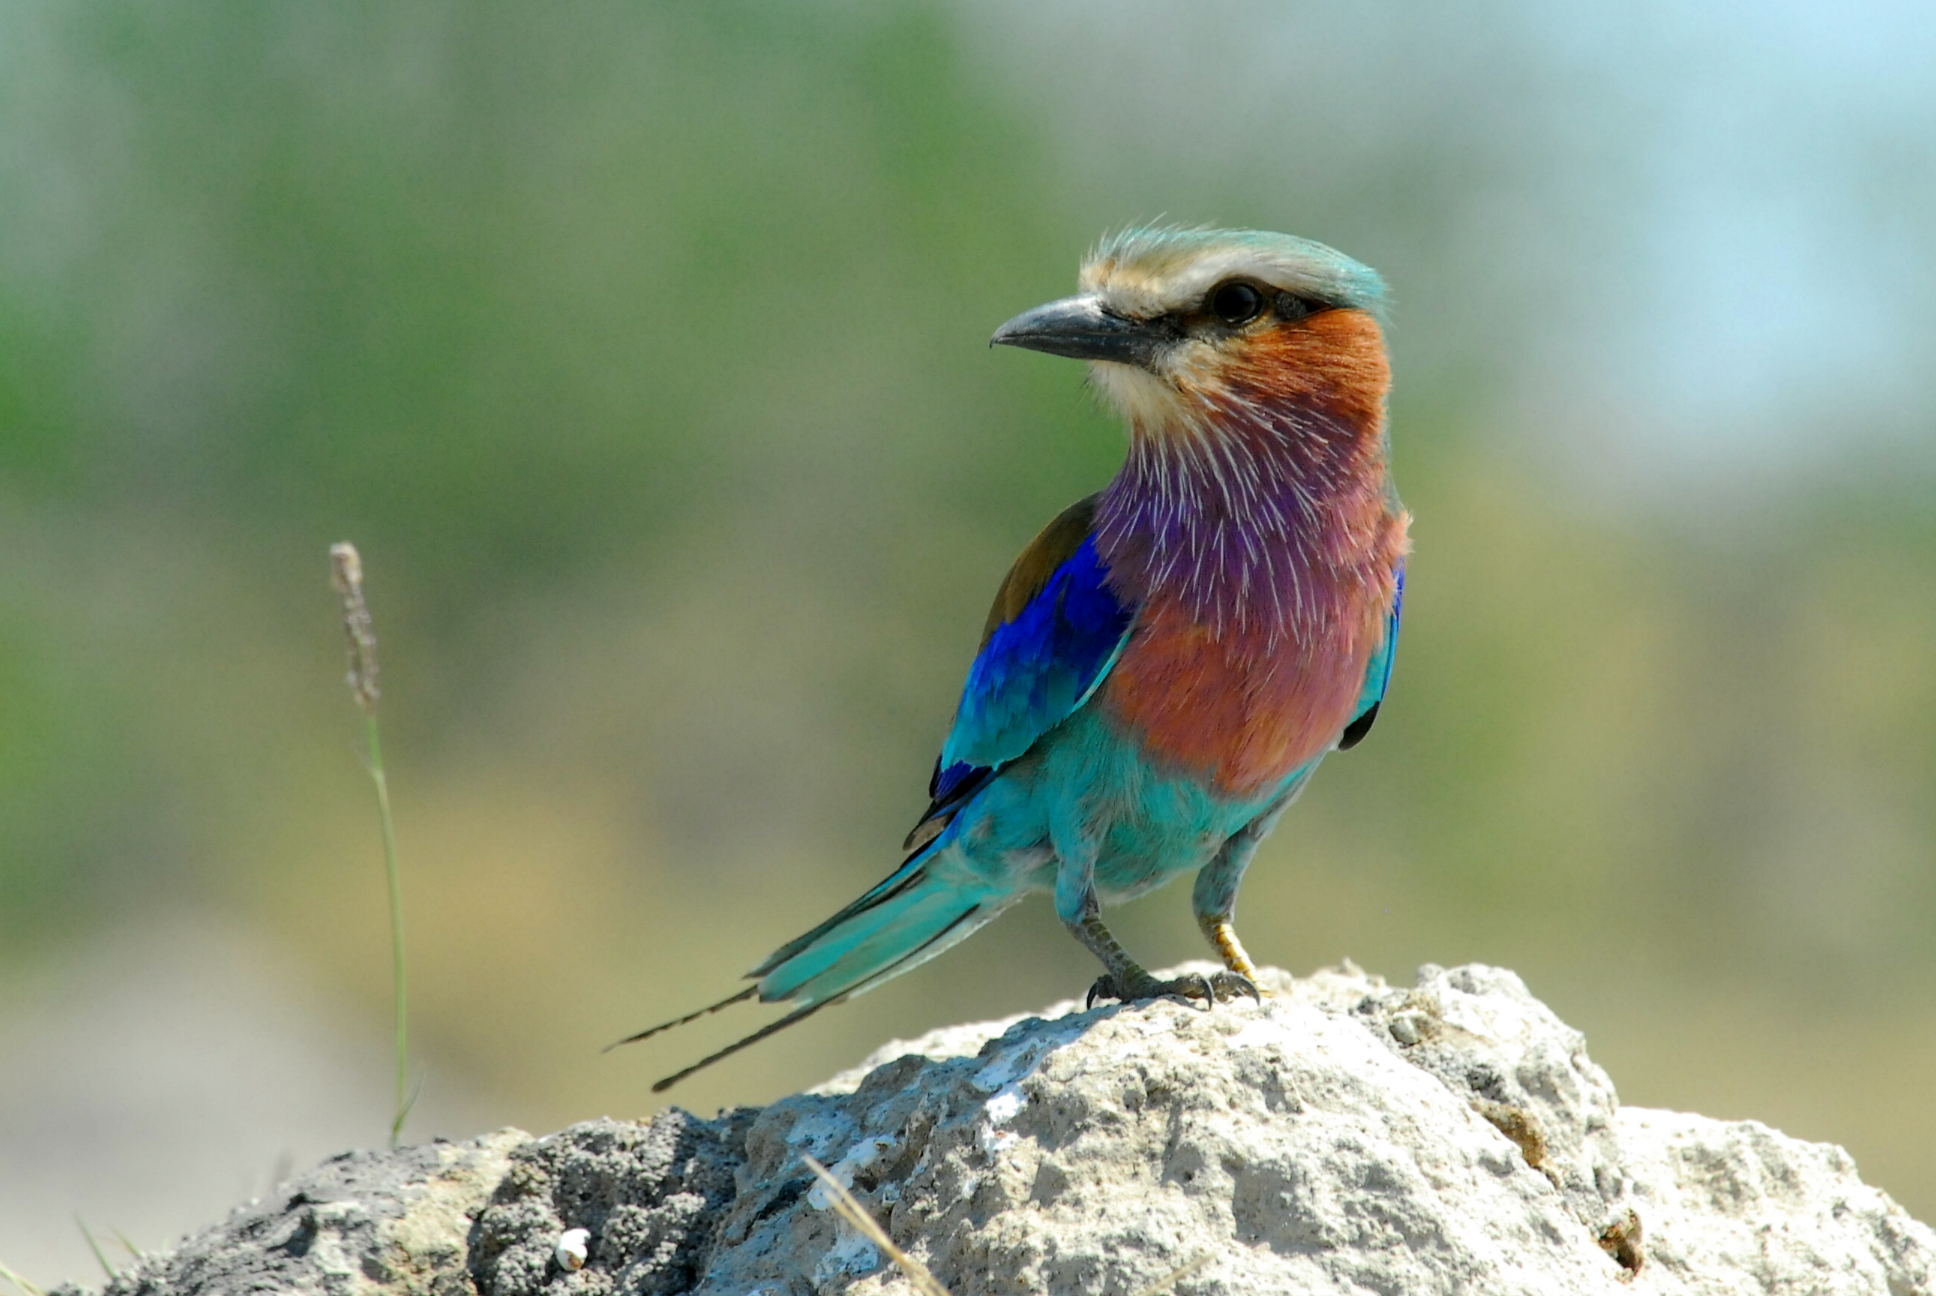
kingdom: Animalia
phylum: Chordata
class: Aves
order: Coraciiformes
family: Coraciidae
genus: Coracias
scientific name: Coracias caudatus
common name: Lilac-breasted roller
